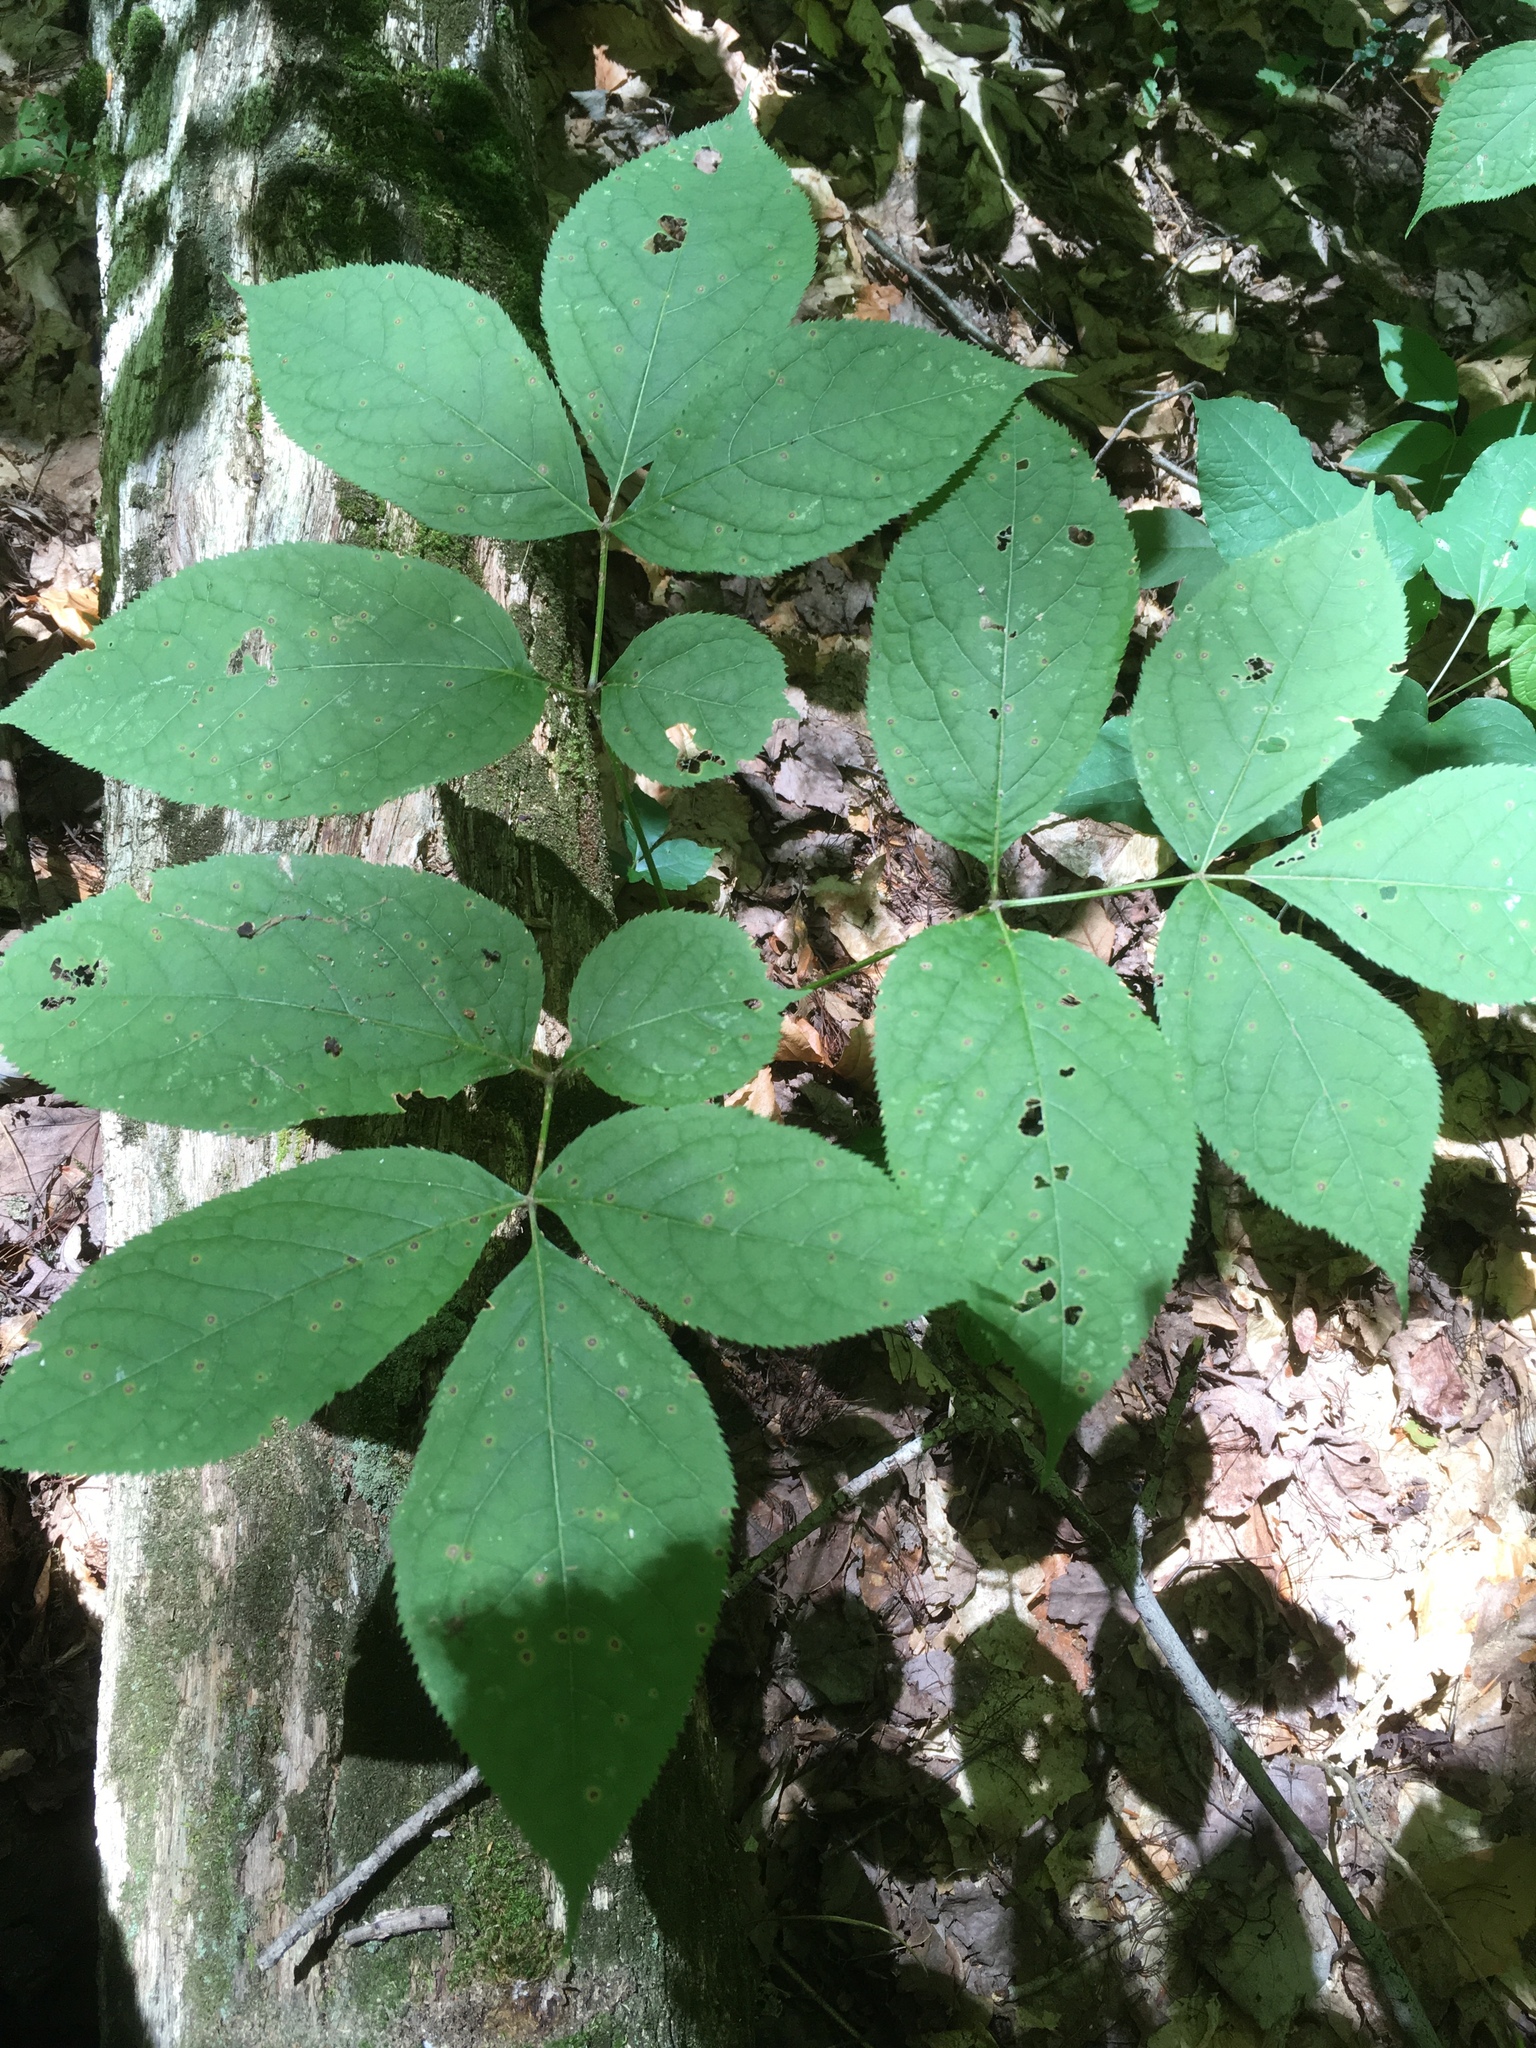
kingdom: Plantae
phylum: Tracheophyta
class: Magnoliopsida
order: Apiales
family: Araliaceae
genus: Aralia
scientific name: Aralia nudicaulis
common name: Wild sarsaparilla
